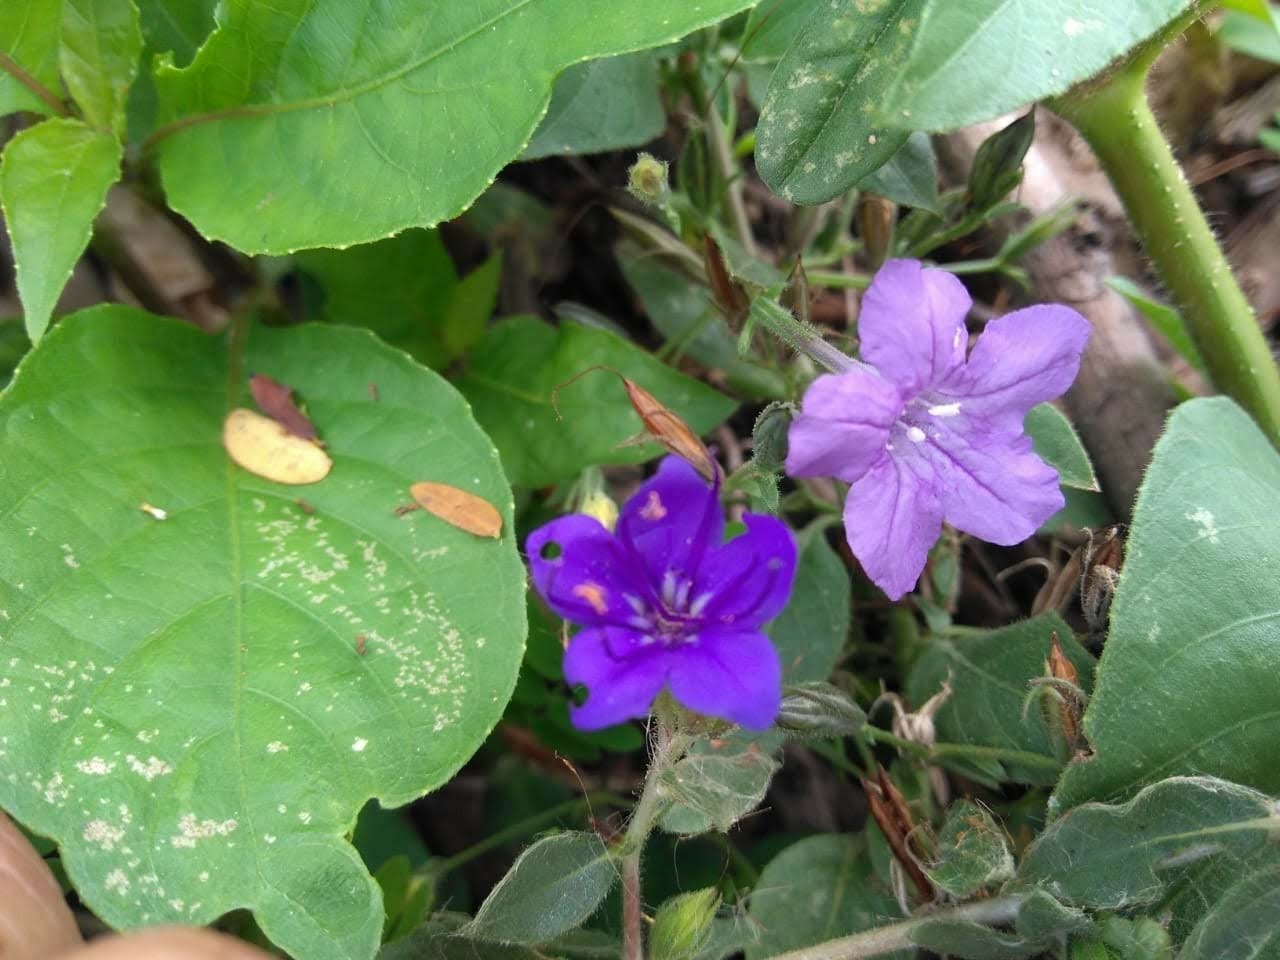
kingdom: Plantae
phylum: Tracheophyta
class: Magnoliopsida
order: Lamiales
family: Acanthaceae
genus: Ruellia
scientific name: Ruellia paniculata
